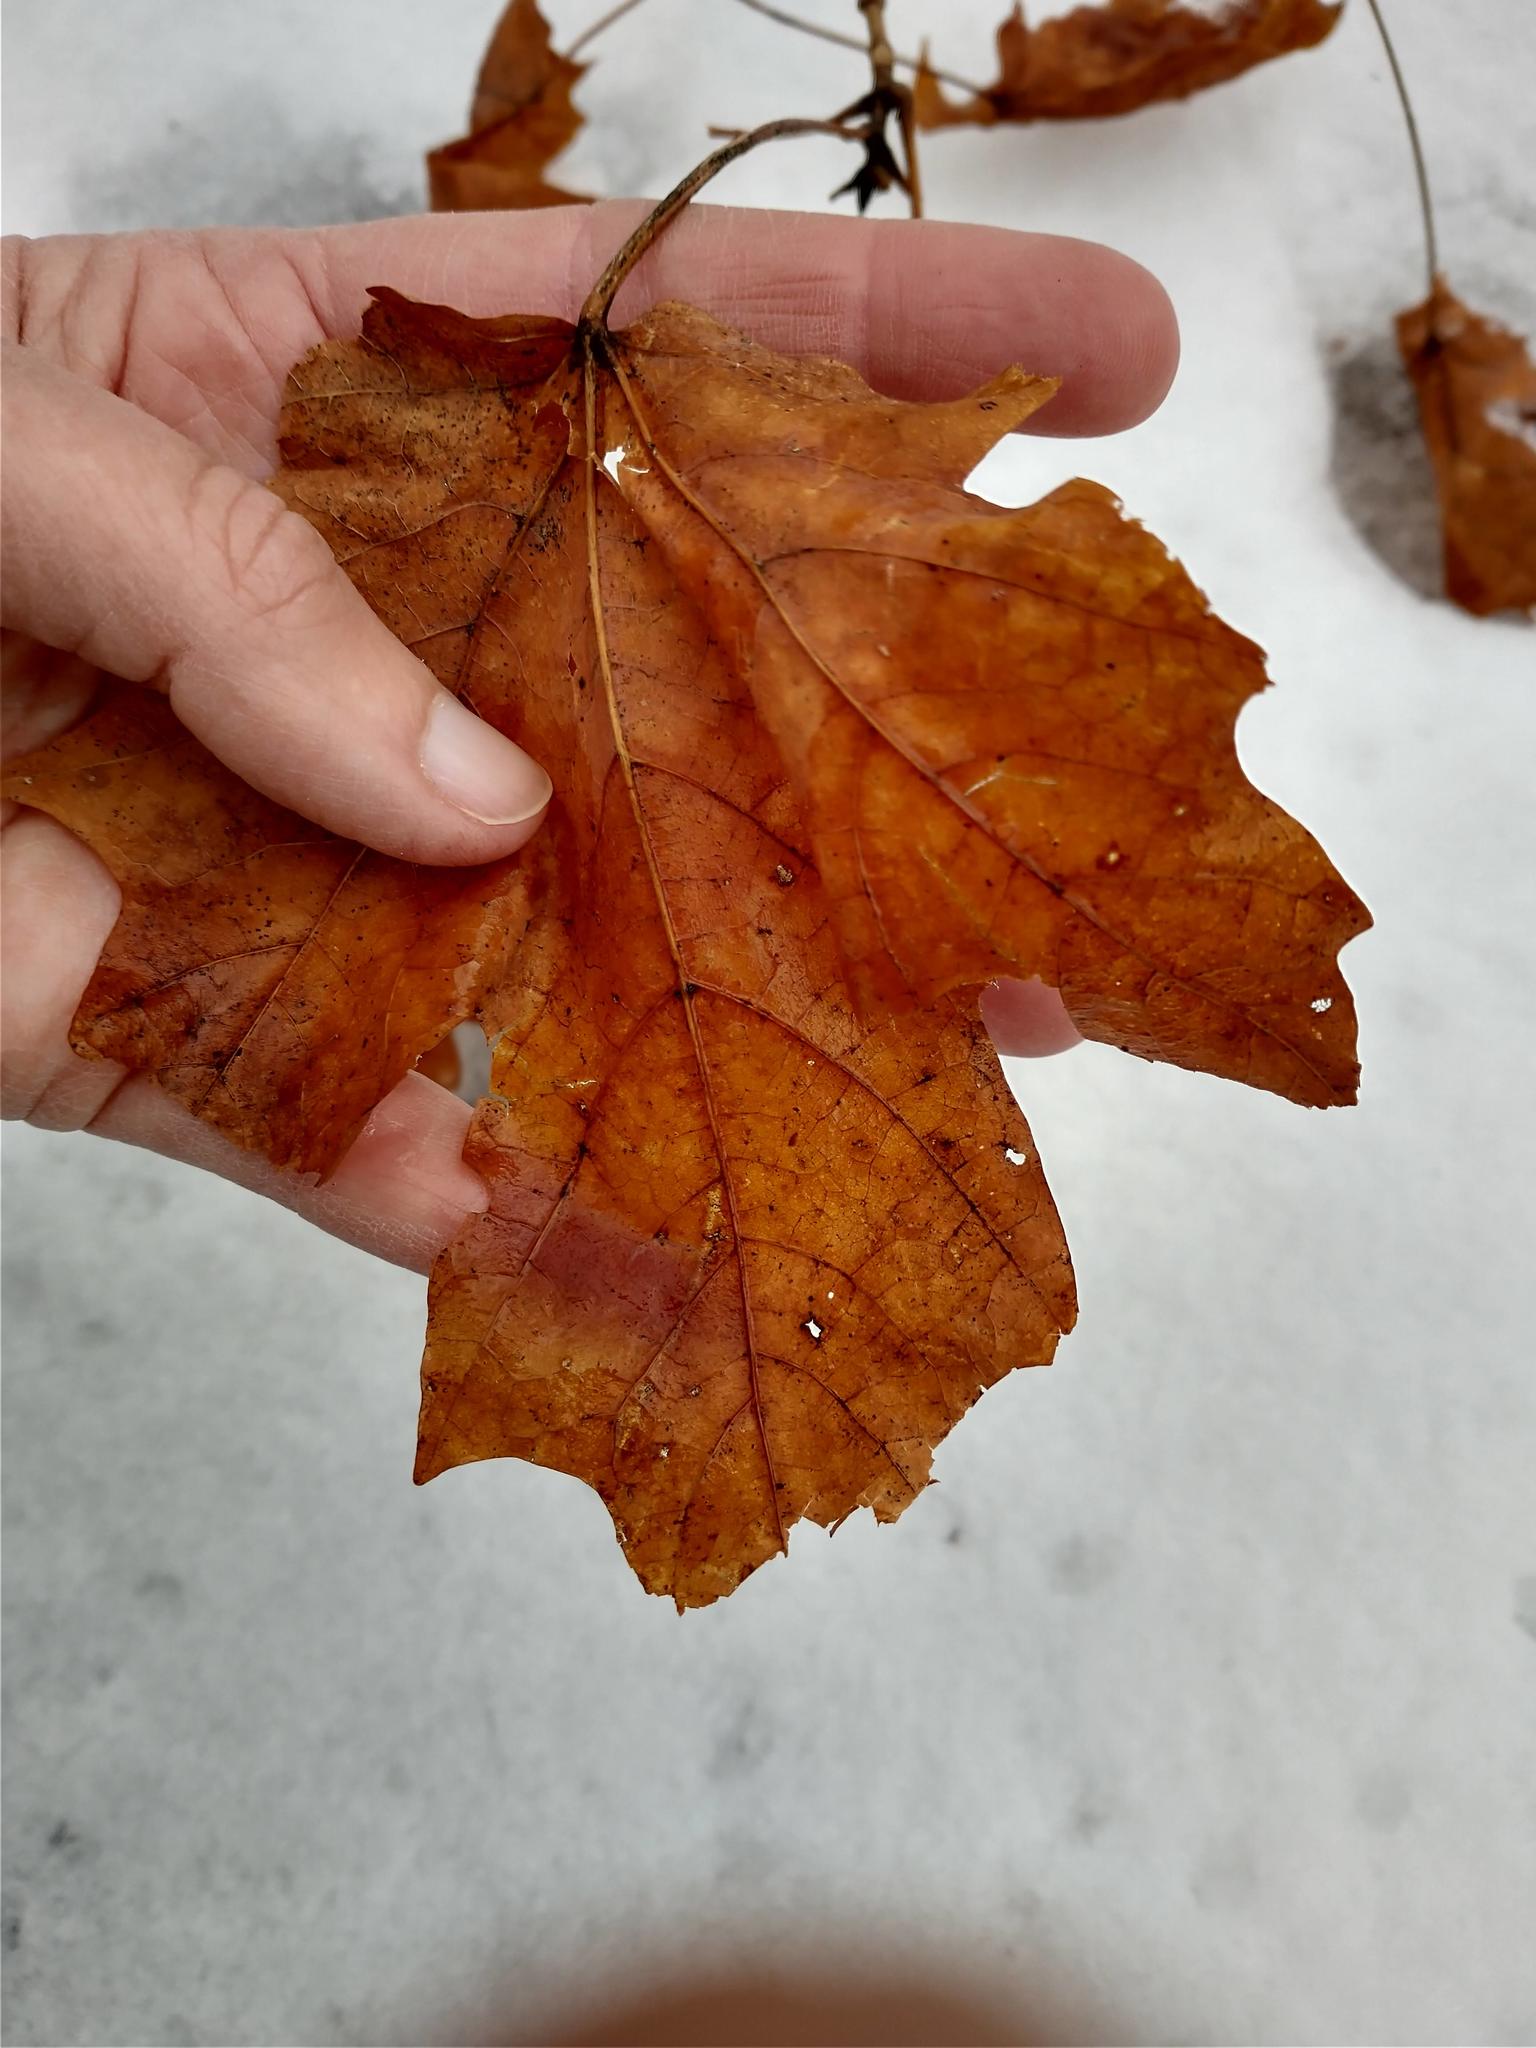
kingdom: Plantae
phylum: Tracheophyta
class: Magnoliopsida
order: Sapindales
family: Sapindaceae
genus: Acer
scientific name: Acer saccharum
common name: Sugar maple
